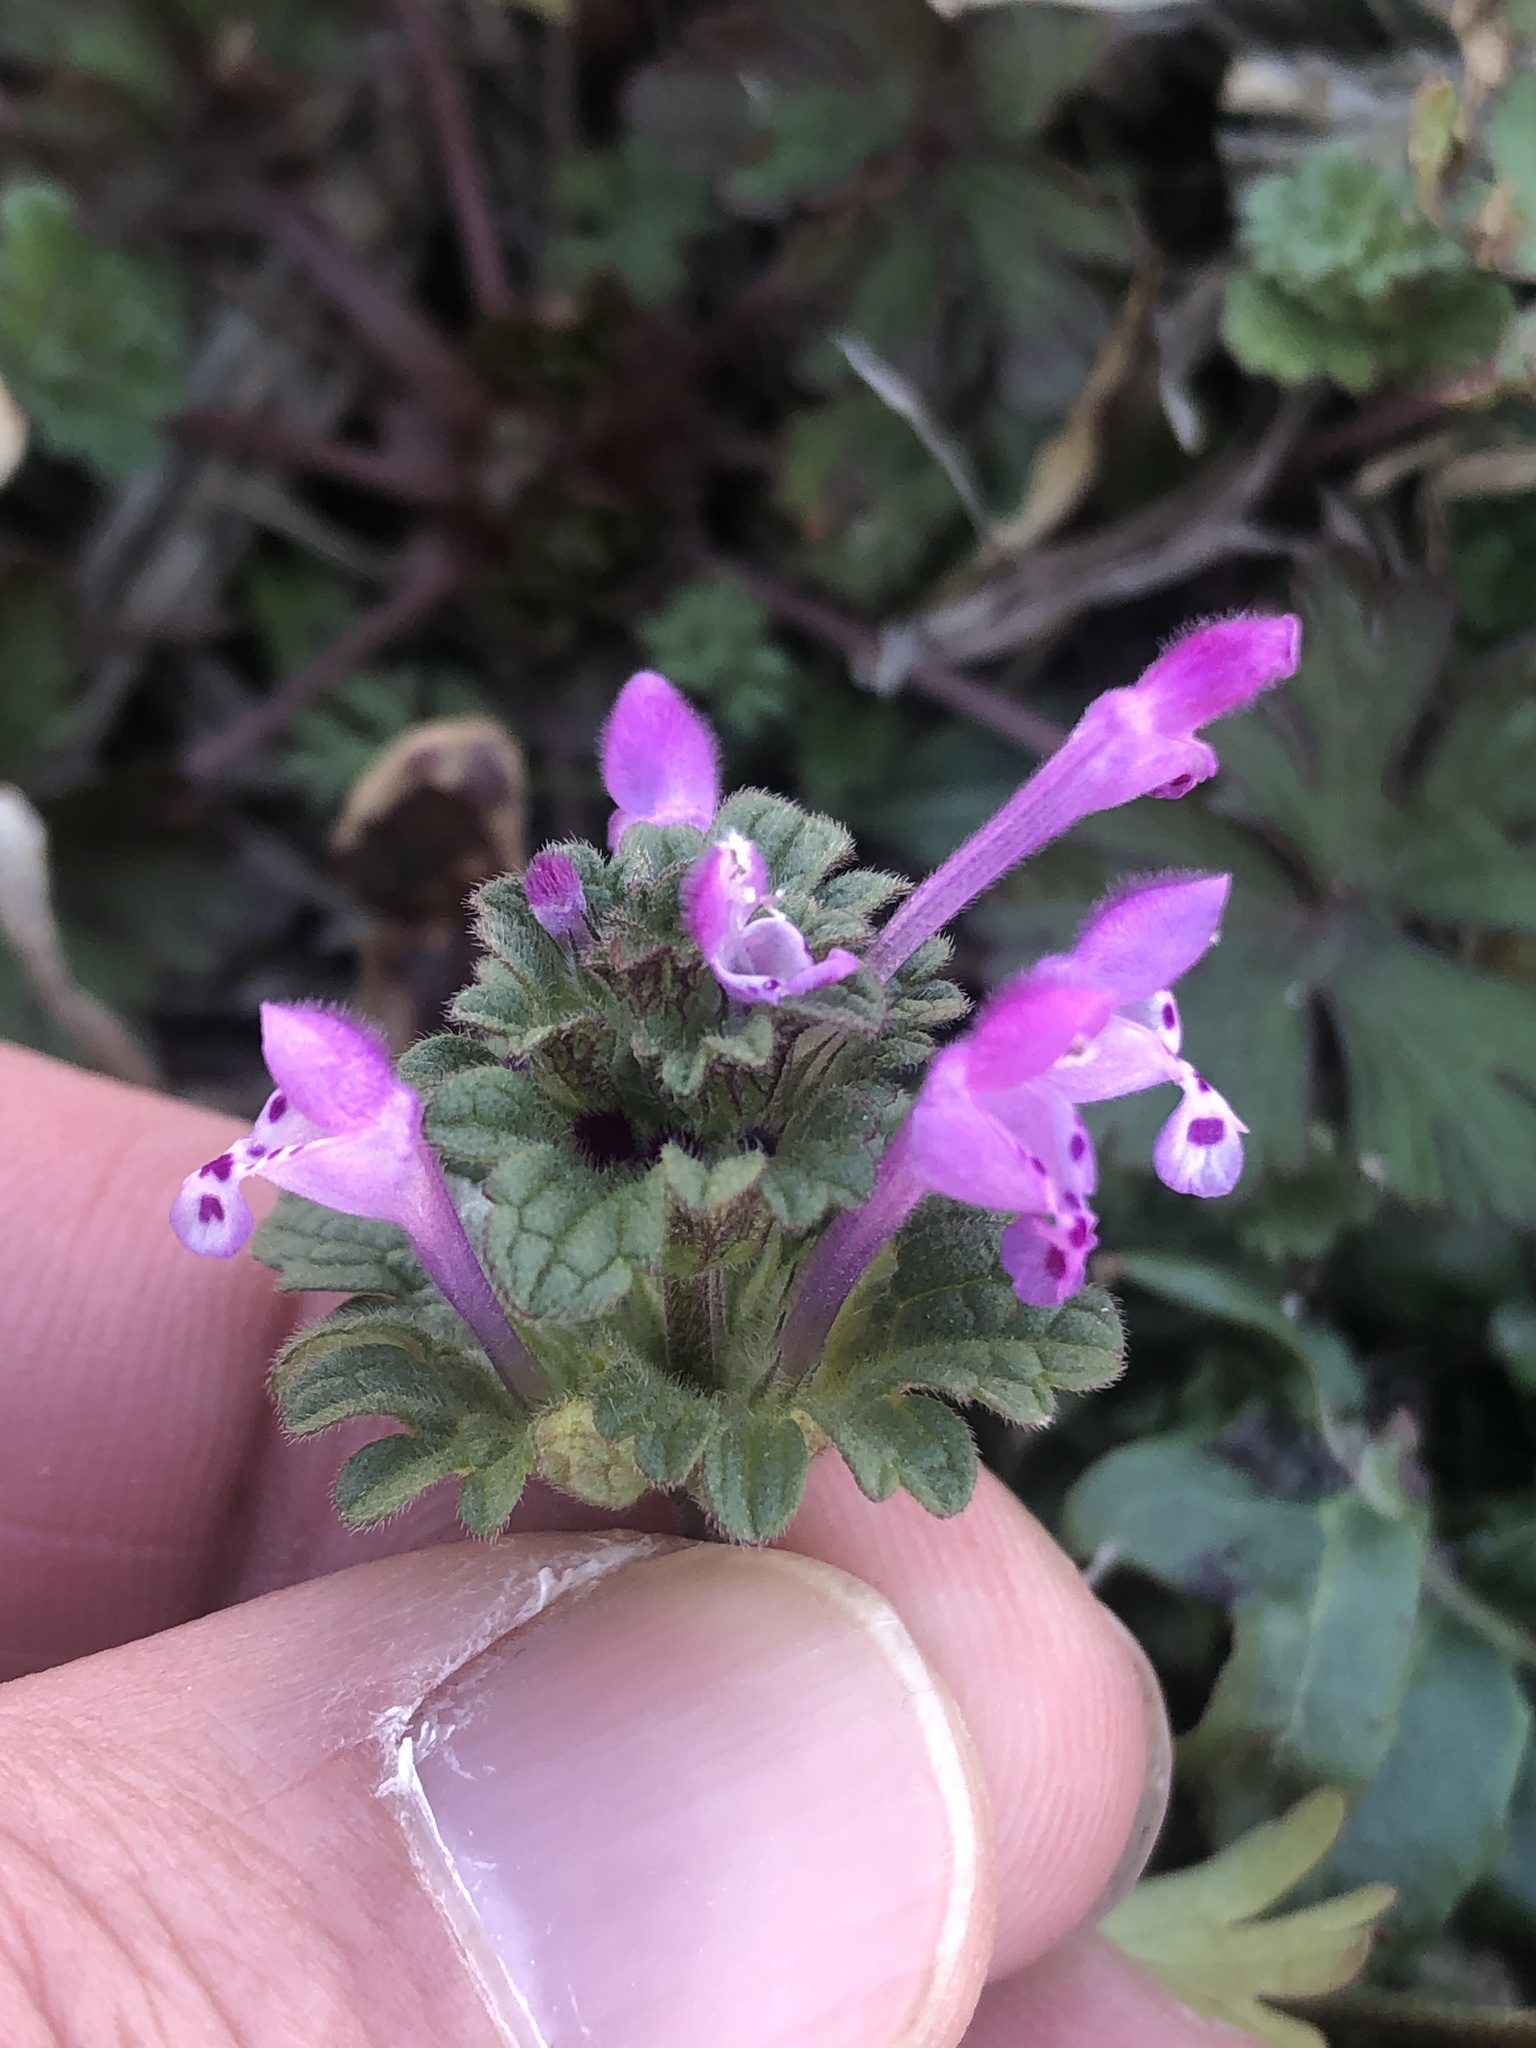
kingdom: Plantae
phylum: Tracheophyta
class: Magnoliopsida
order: Lamiales
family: Lamiaceae
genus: Lamium
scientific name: Lamium amplexicaule
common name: Henbit dead-nettle
